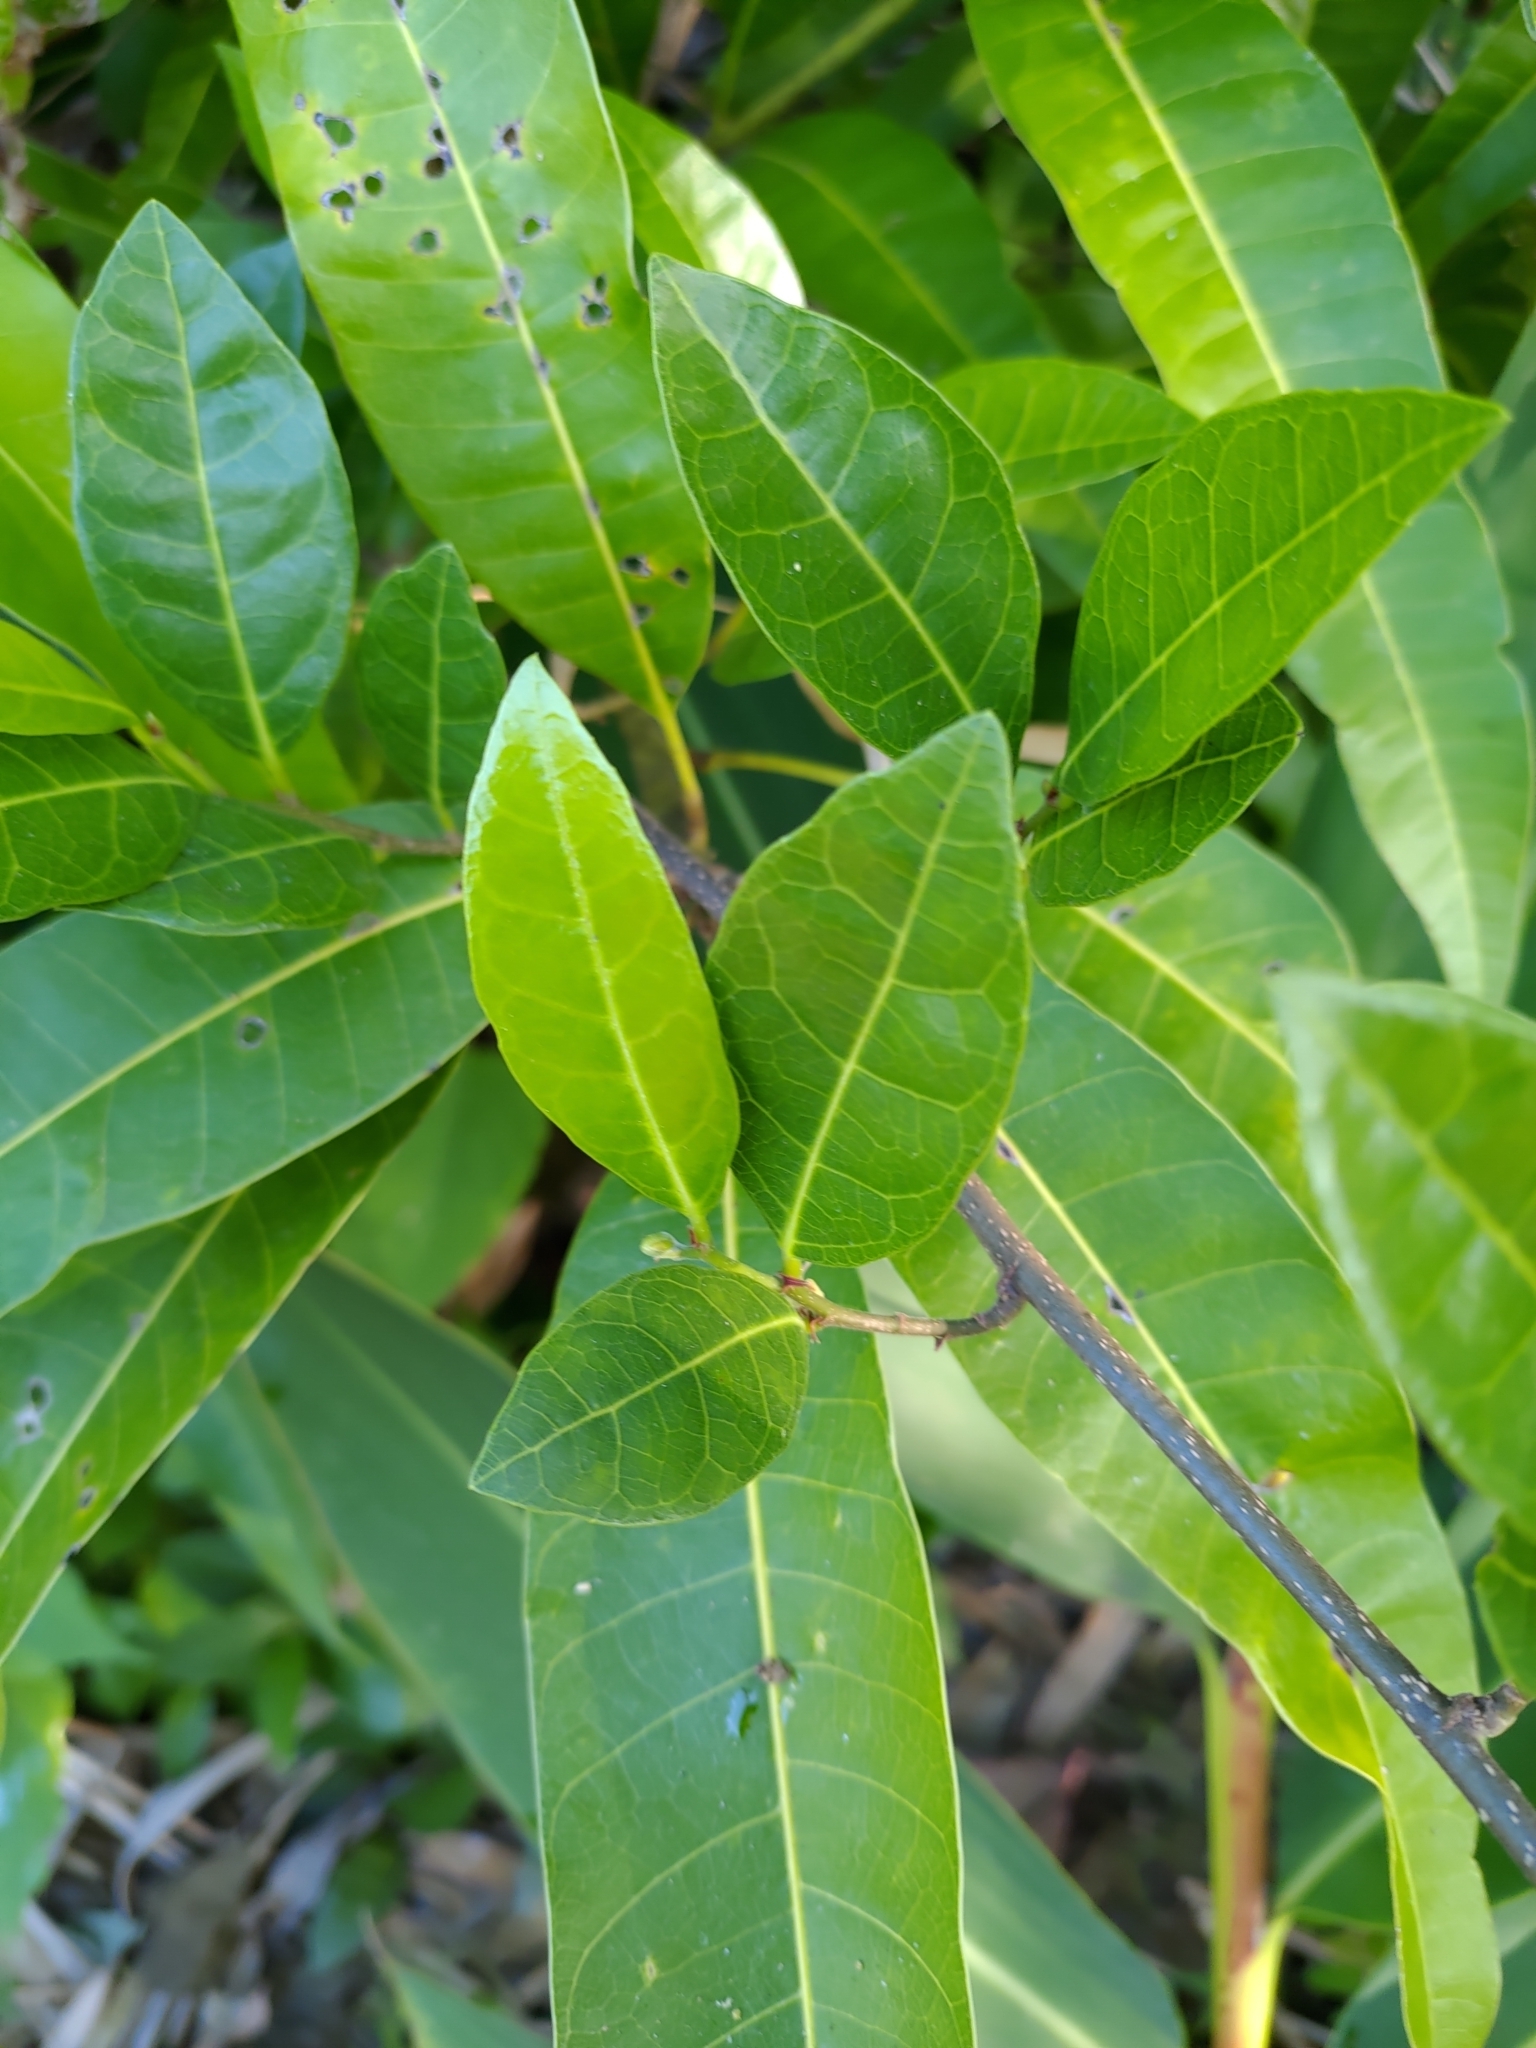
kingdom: Plantae
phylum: Tracheophyta
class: Magnoliopsida
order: Rosales
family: Moraceae
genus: Malaisia
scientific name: Malaisia scandens
